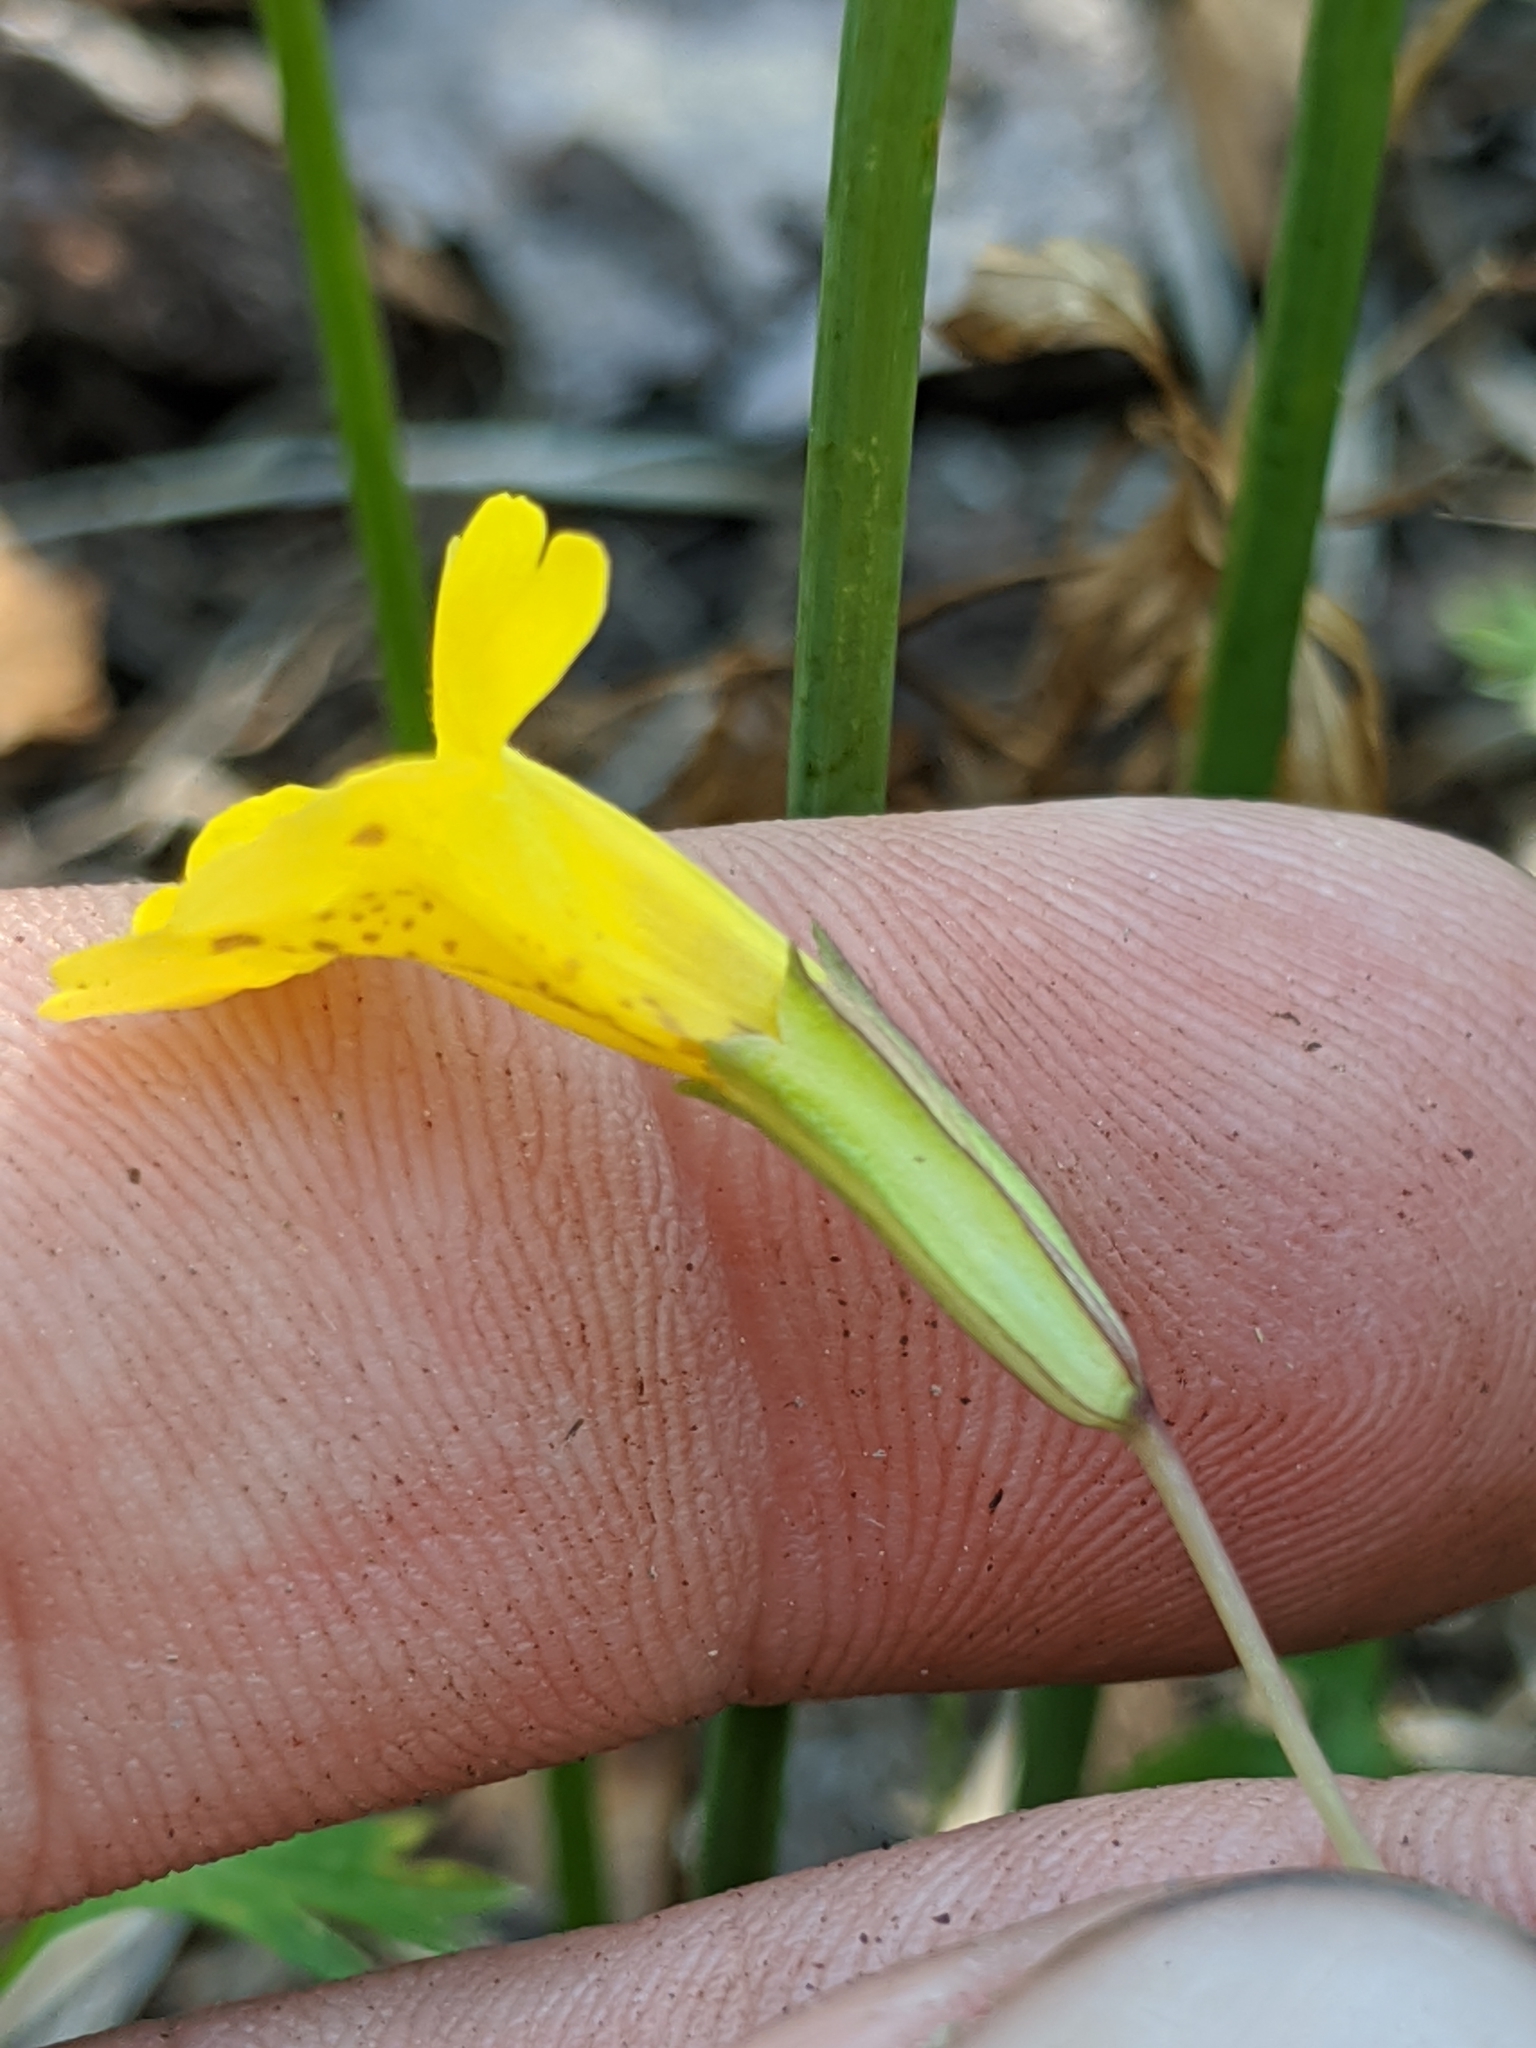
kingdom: Plantae
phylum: Tracheophyta
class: Magnoliopsida
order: Lamiales
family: Phrymaceae
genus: Erythranthe
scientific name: Erythranthe linearifolia
